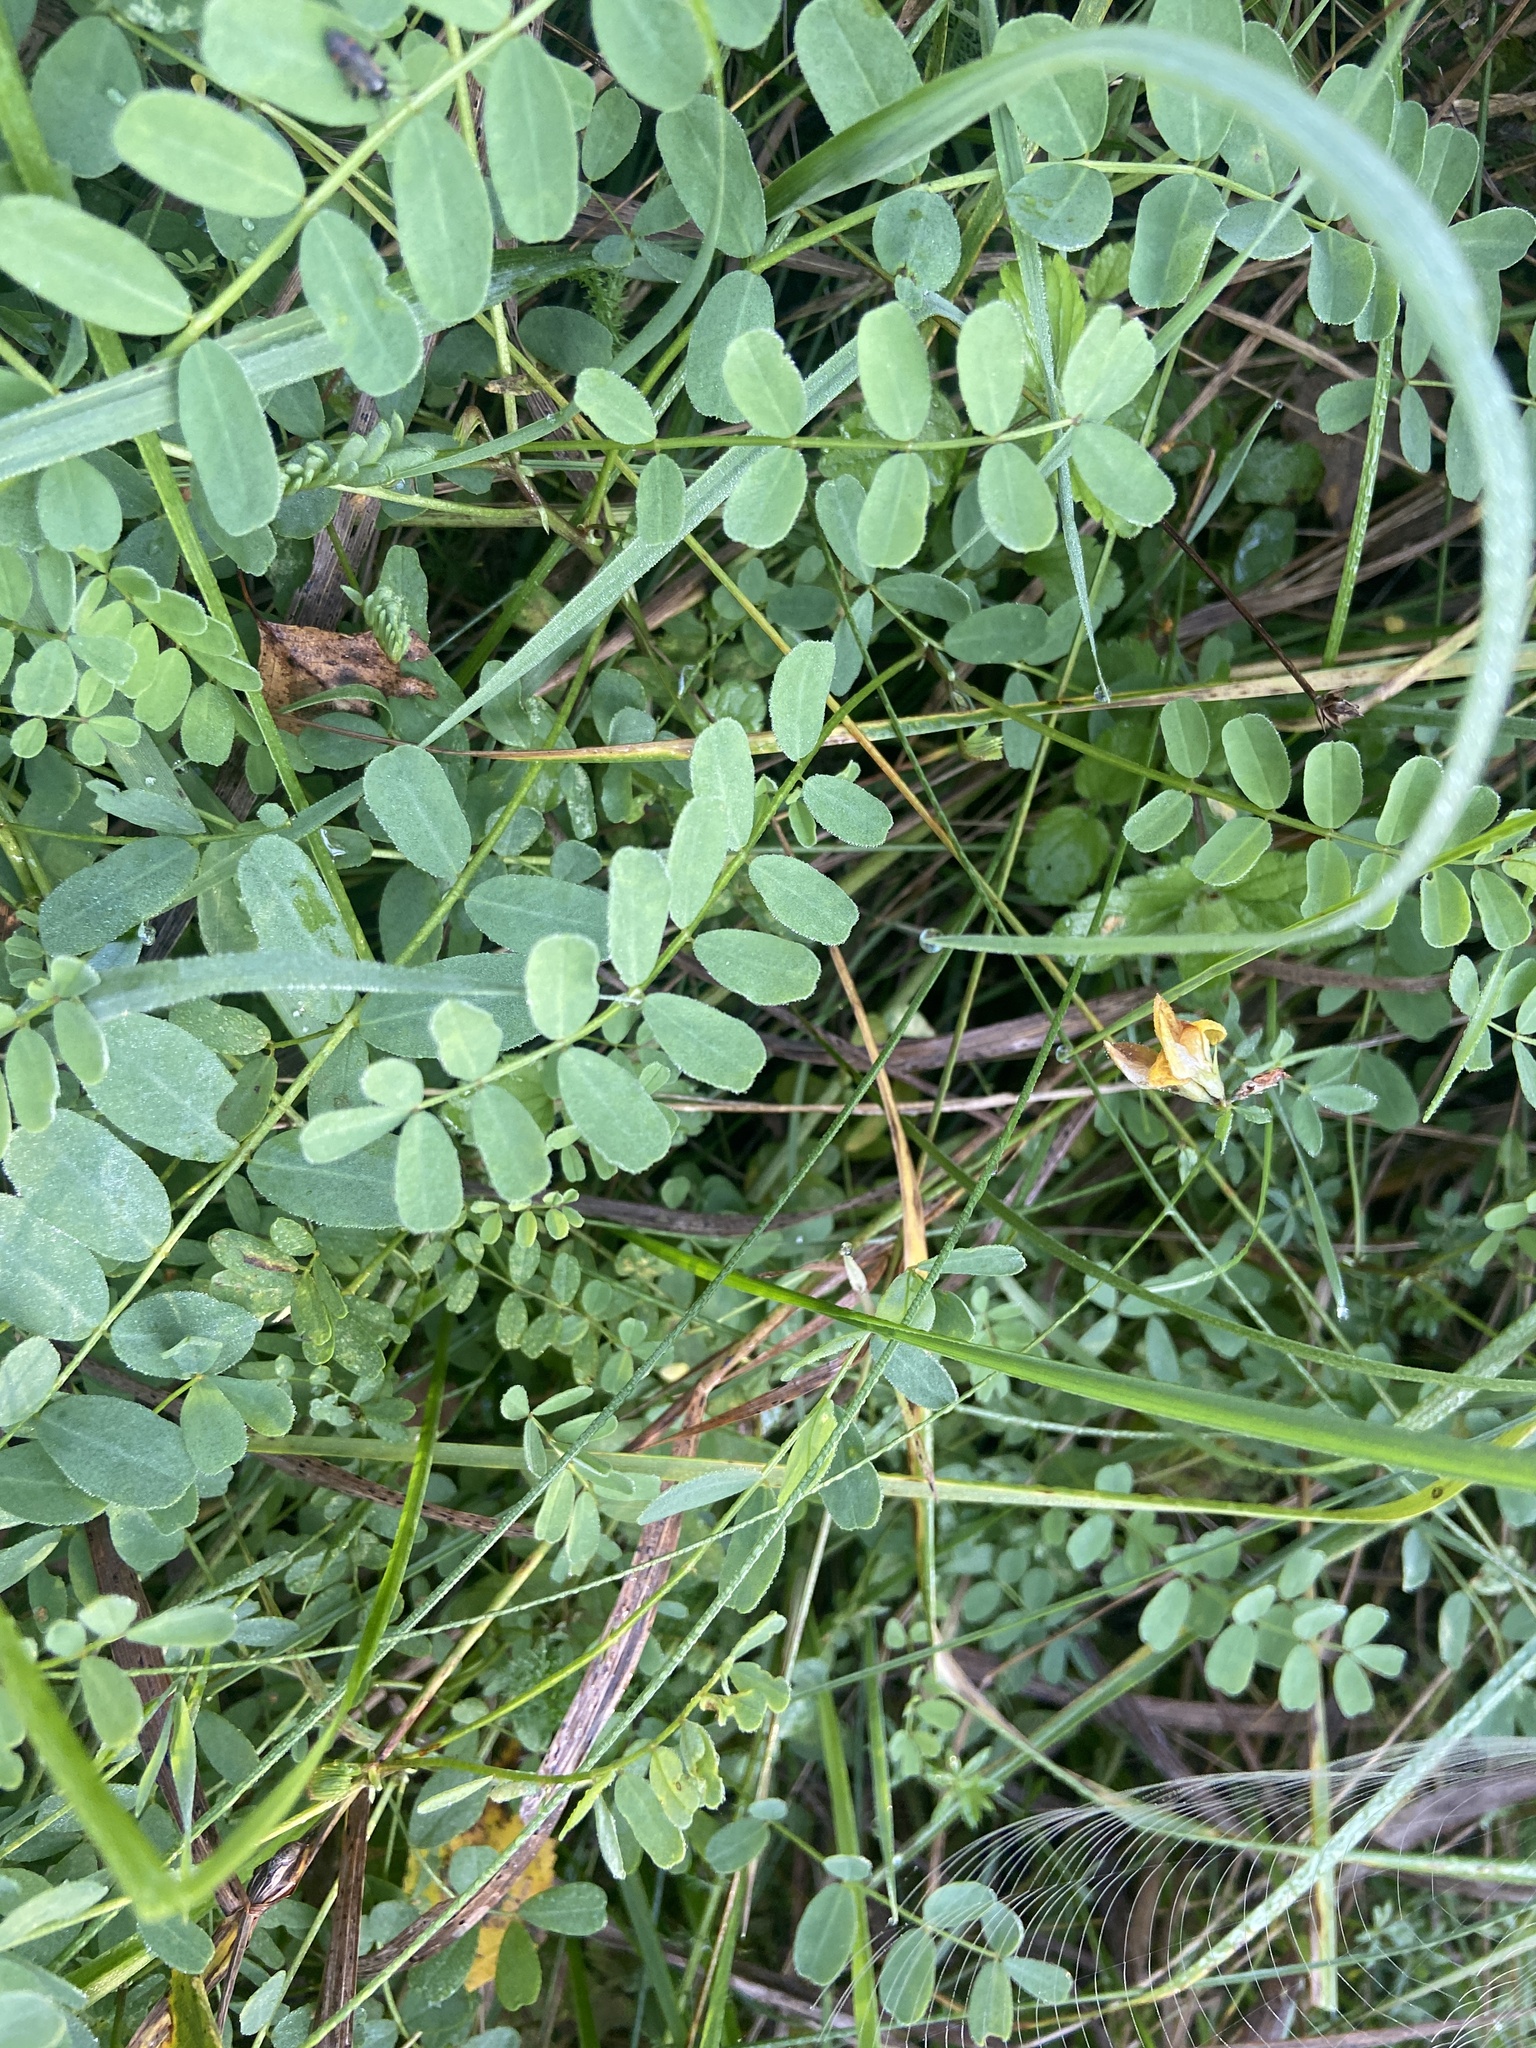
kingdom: Plantae
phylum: Tracheophyta
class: Magnoliopsida
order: Fabales
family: Fabaceae
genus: Coronilla
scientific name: Coronilla varia
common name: Crownvetch
